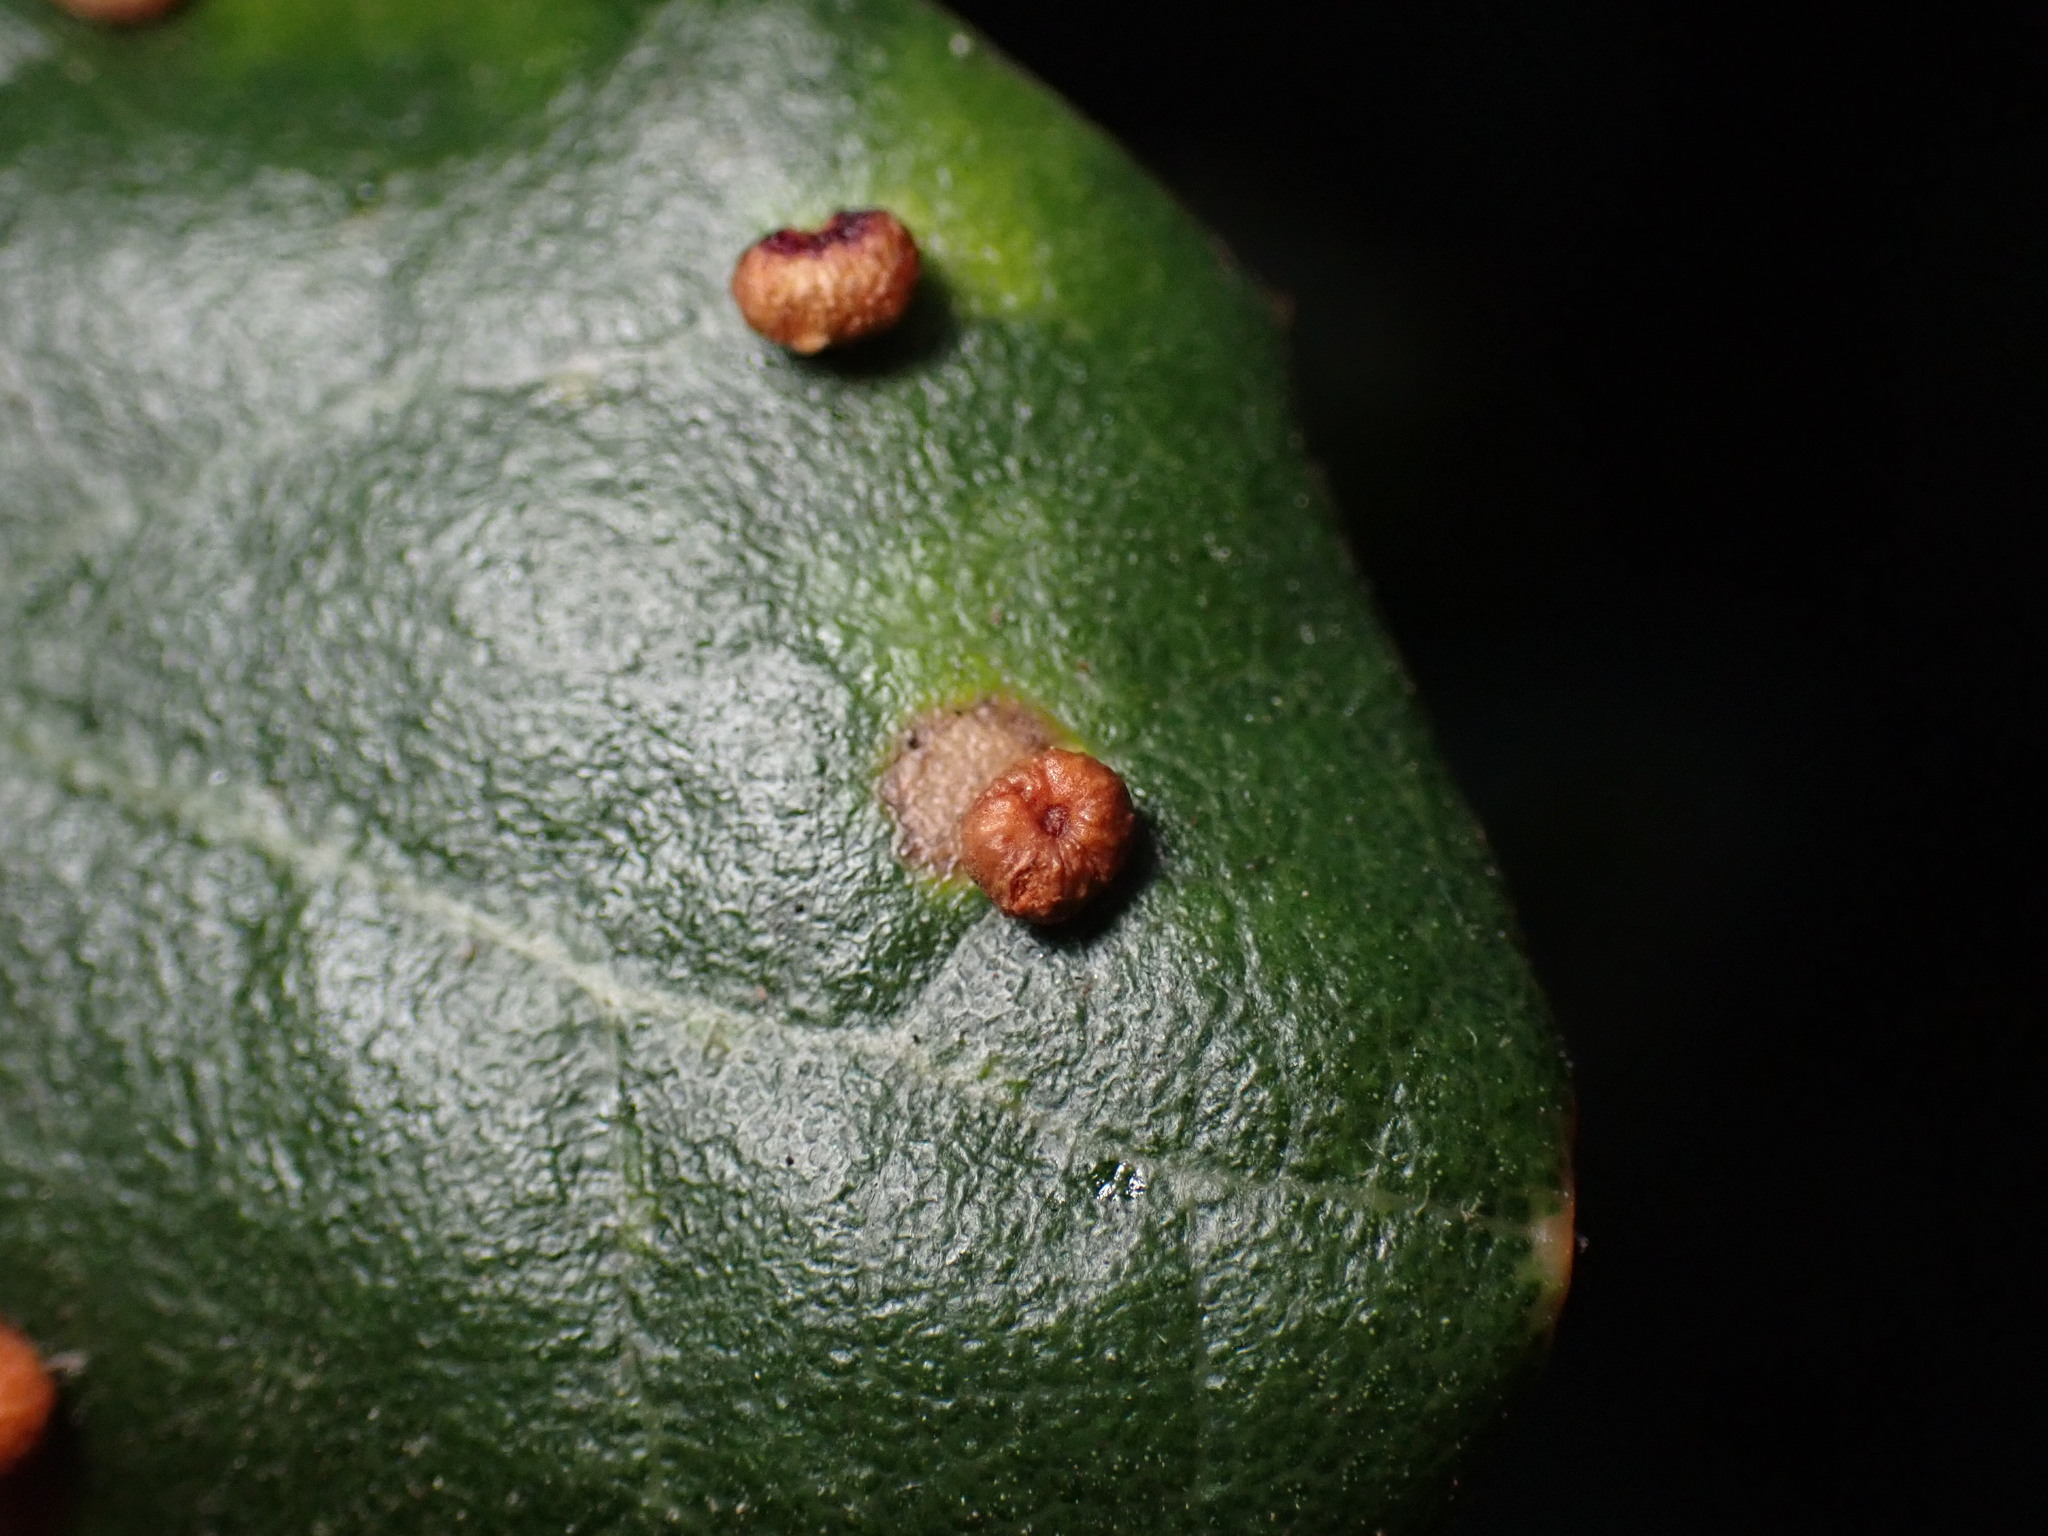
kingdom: Animalia
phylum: Arthropoda
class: Insecta
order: Hymenoptera
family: Cynipidae
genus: Dryocosmus
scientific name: Dryocosmus
